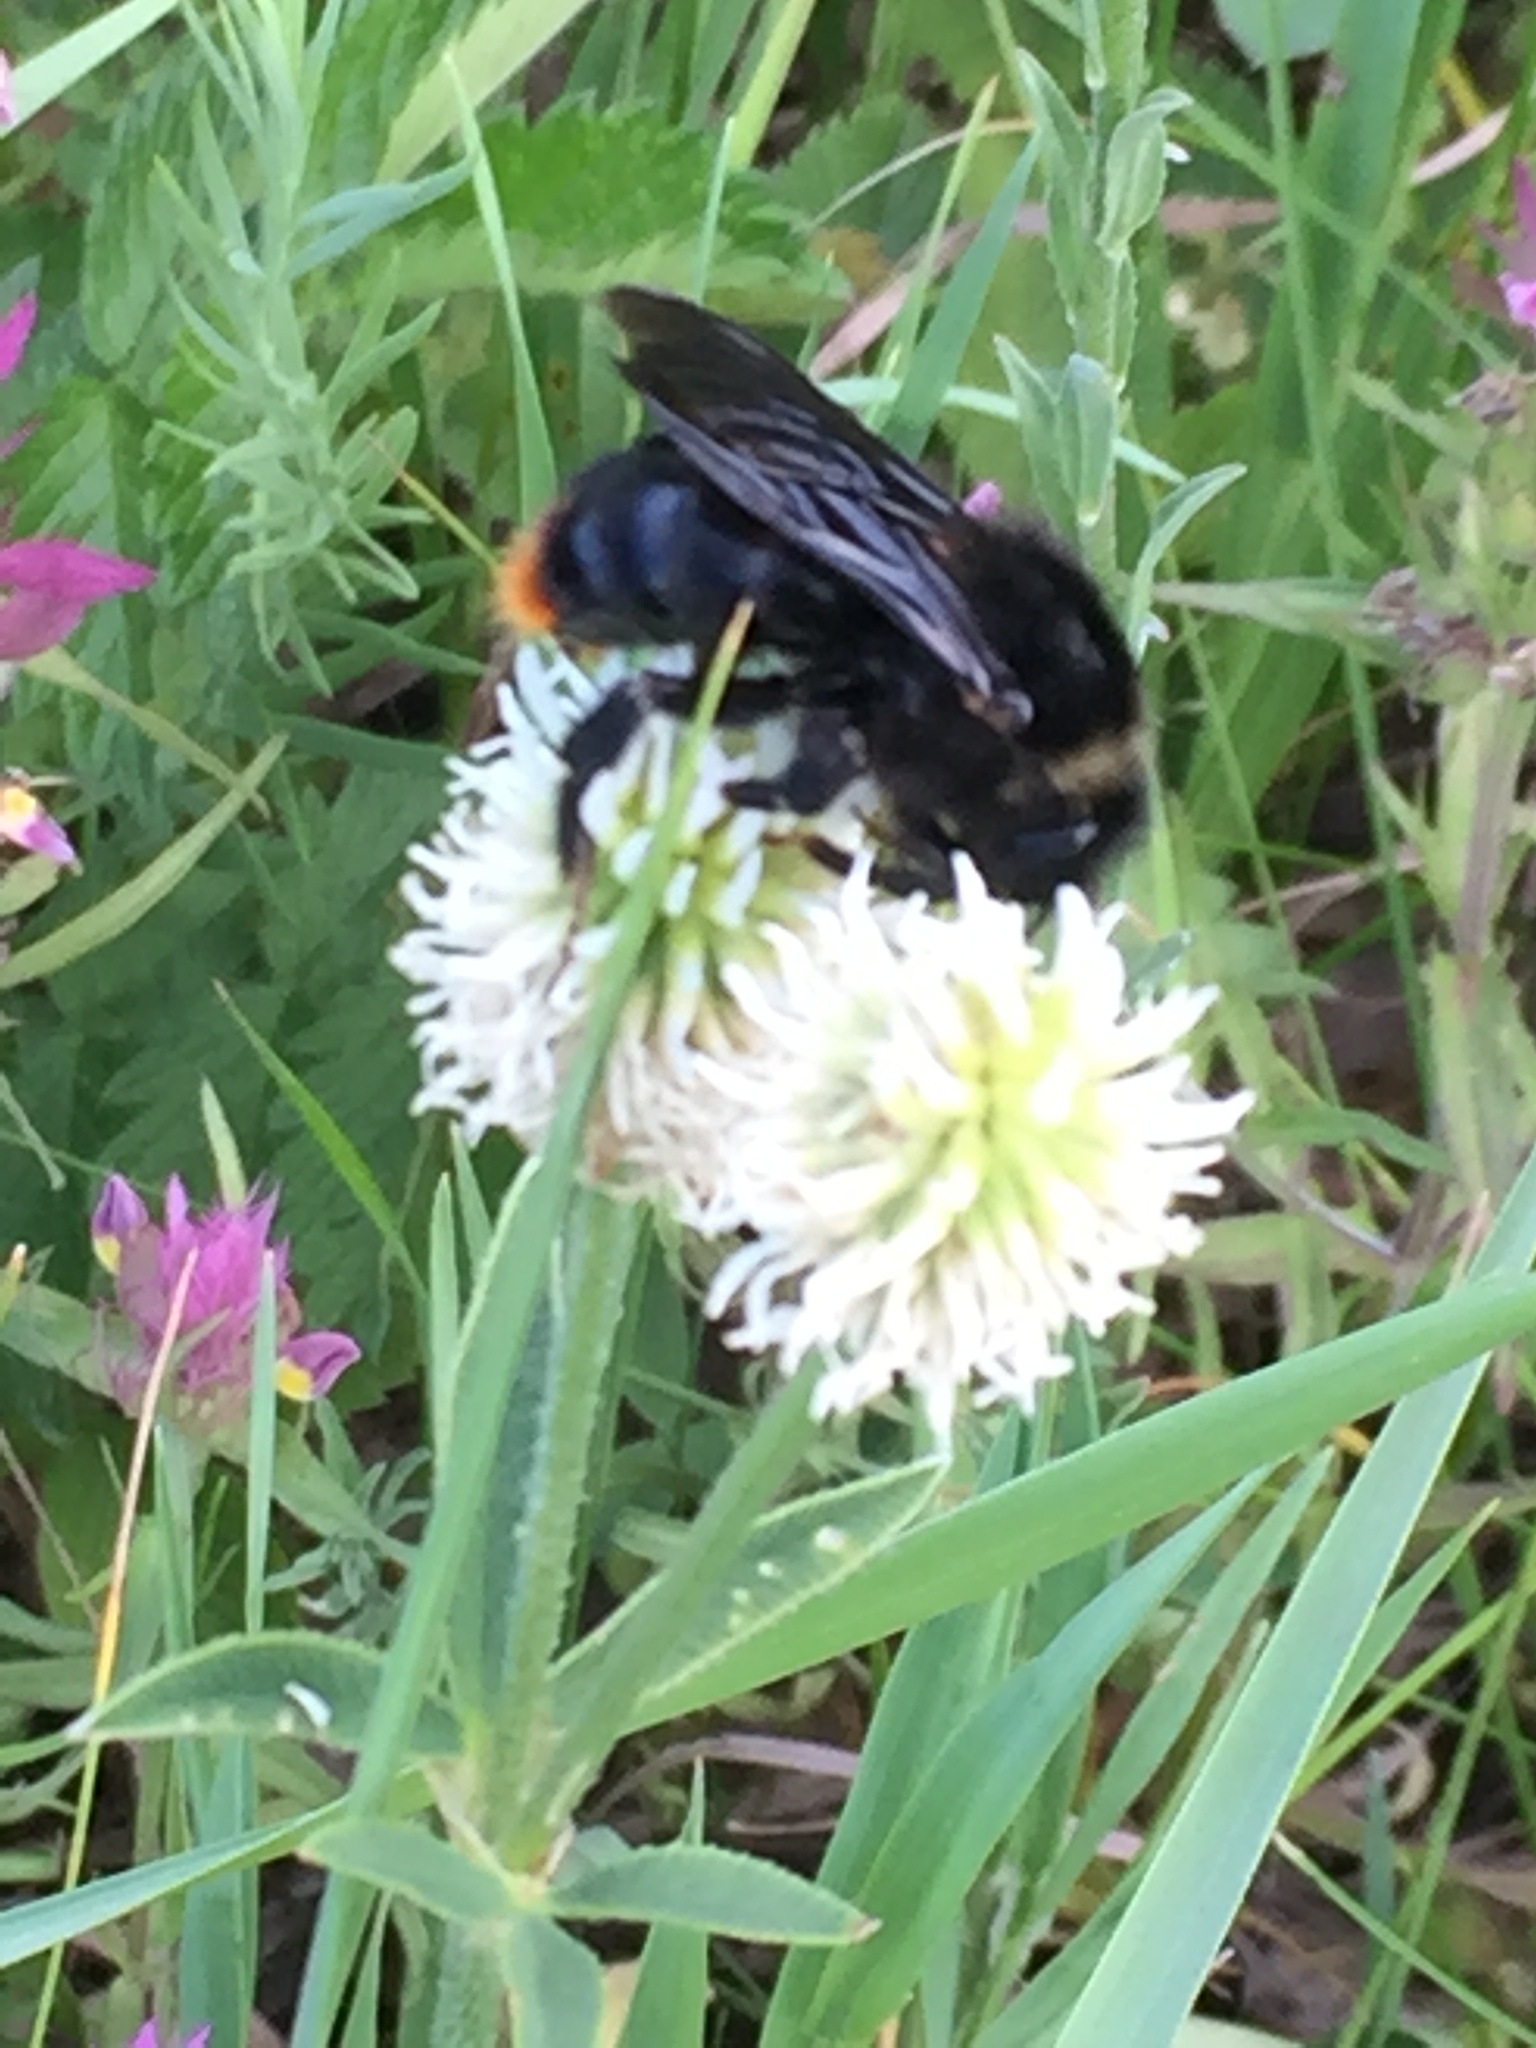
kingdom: Animalia
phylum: Arthropoda
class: Insecta
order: Hymenoptera
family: Apidae
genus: Bombus
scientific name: Bombus rupestris
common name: Hill cuckoo-bee
